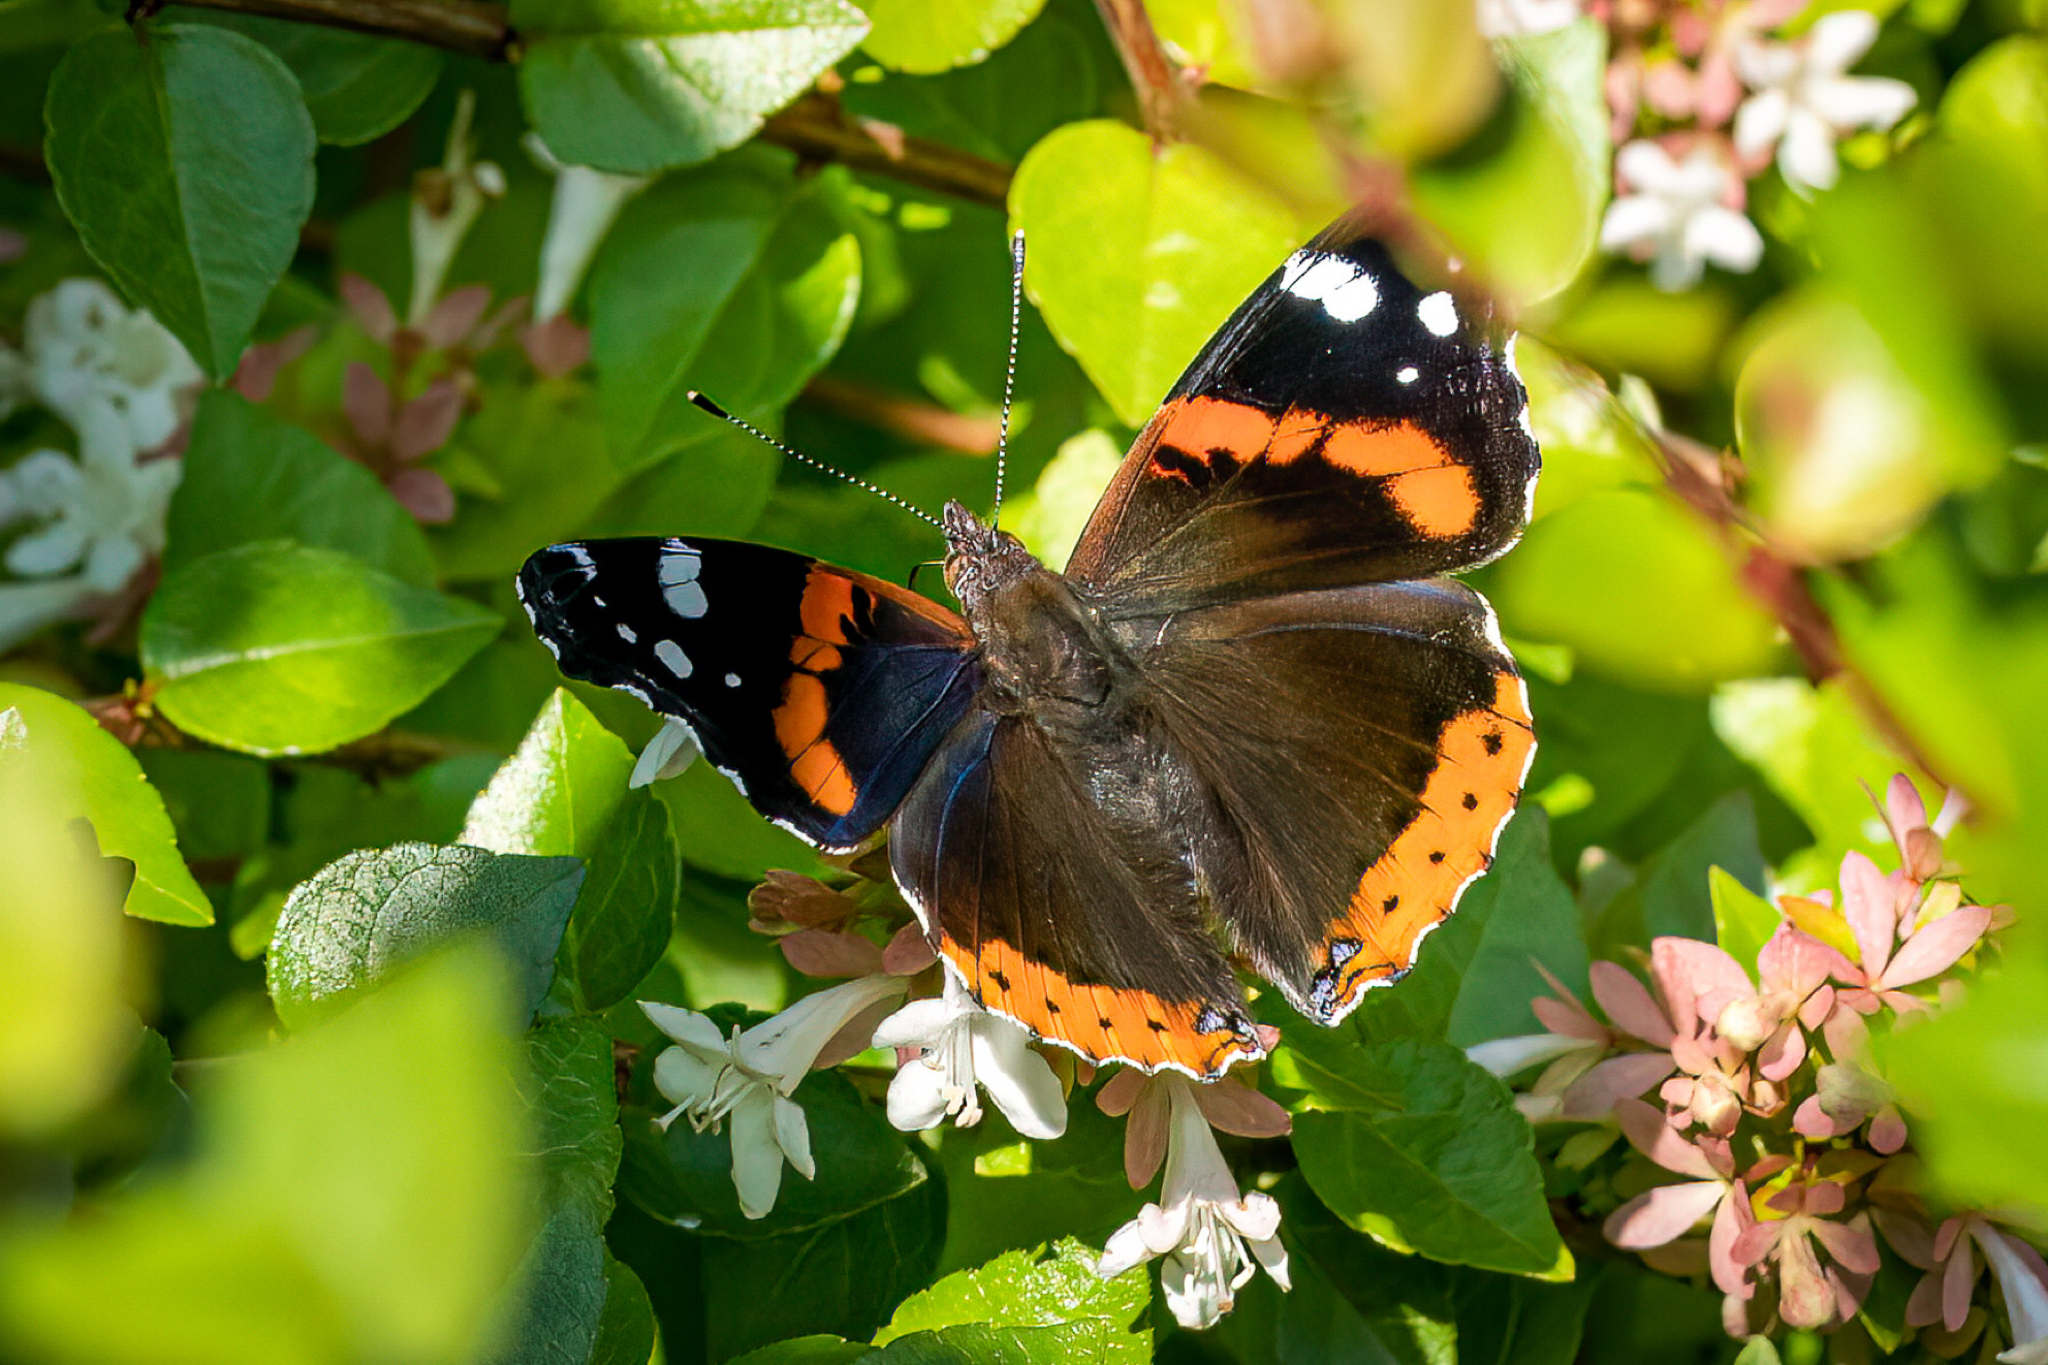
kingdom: Animalia
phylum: Arthropoda
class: Insecta
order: Lepidoptera
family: Nymphalidae
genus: Vanessa
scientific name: Vanessa atalanta
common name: Red admiral
